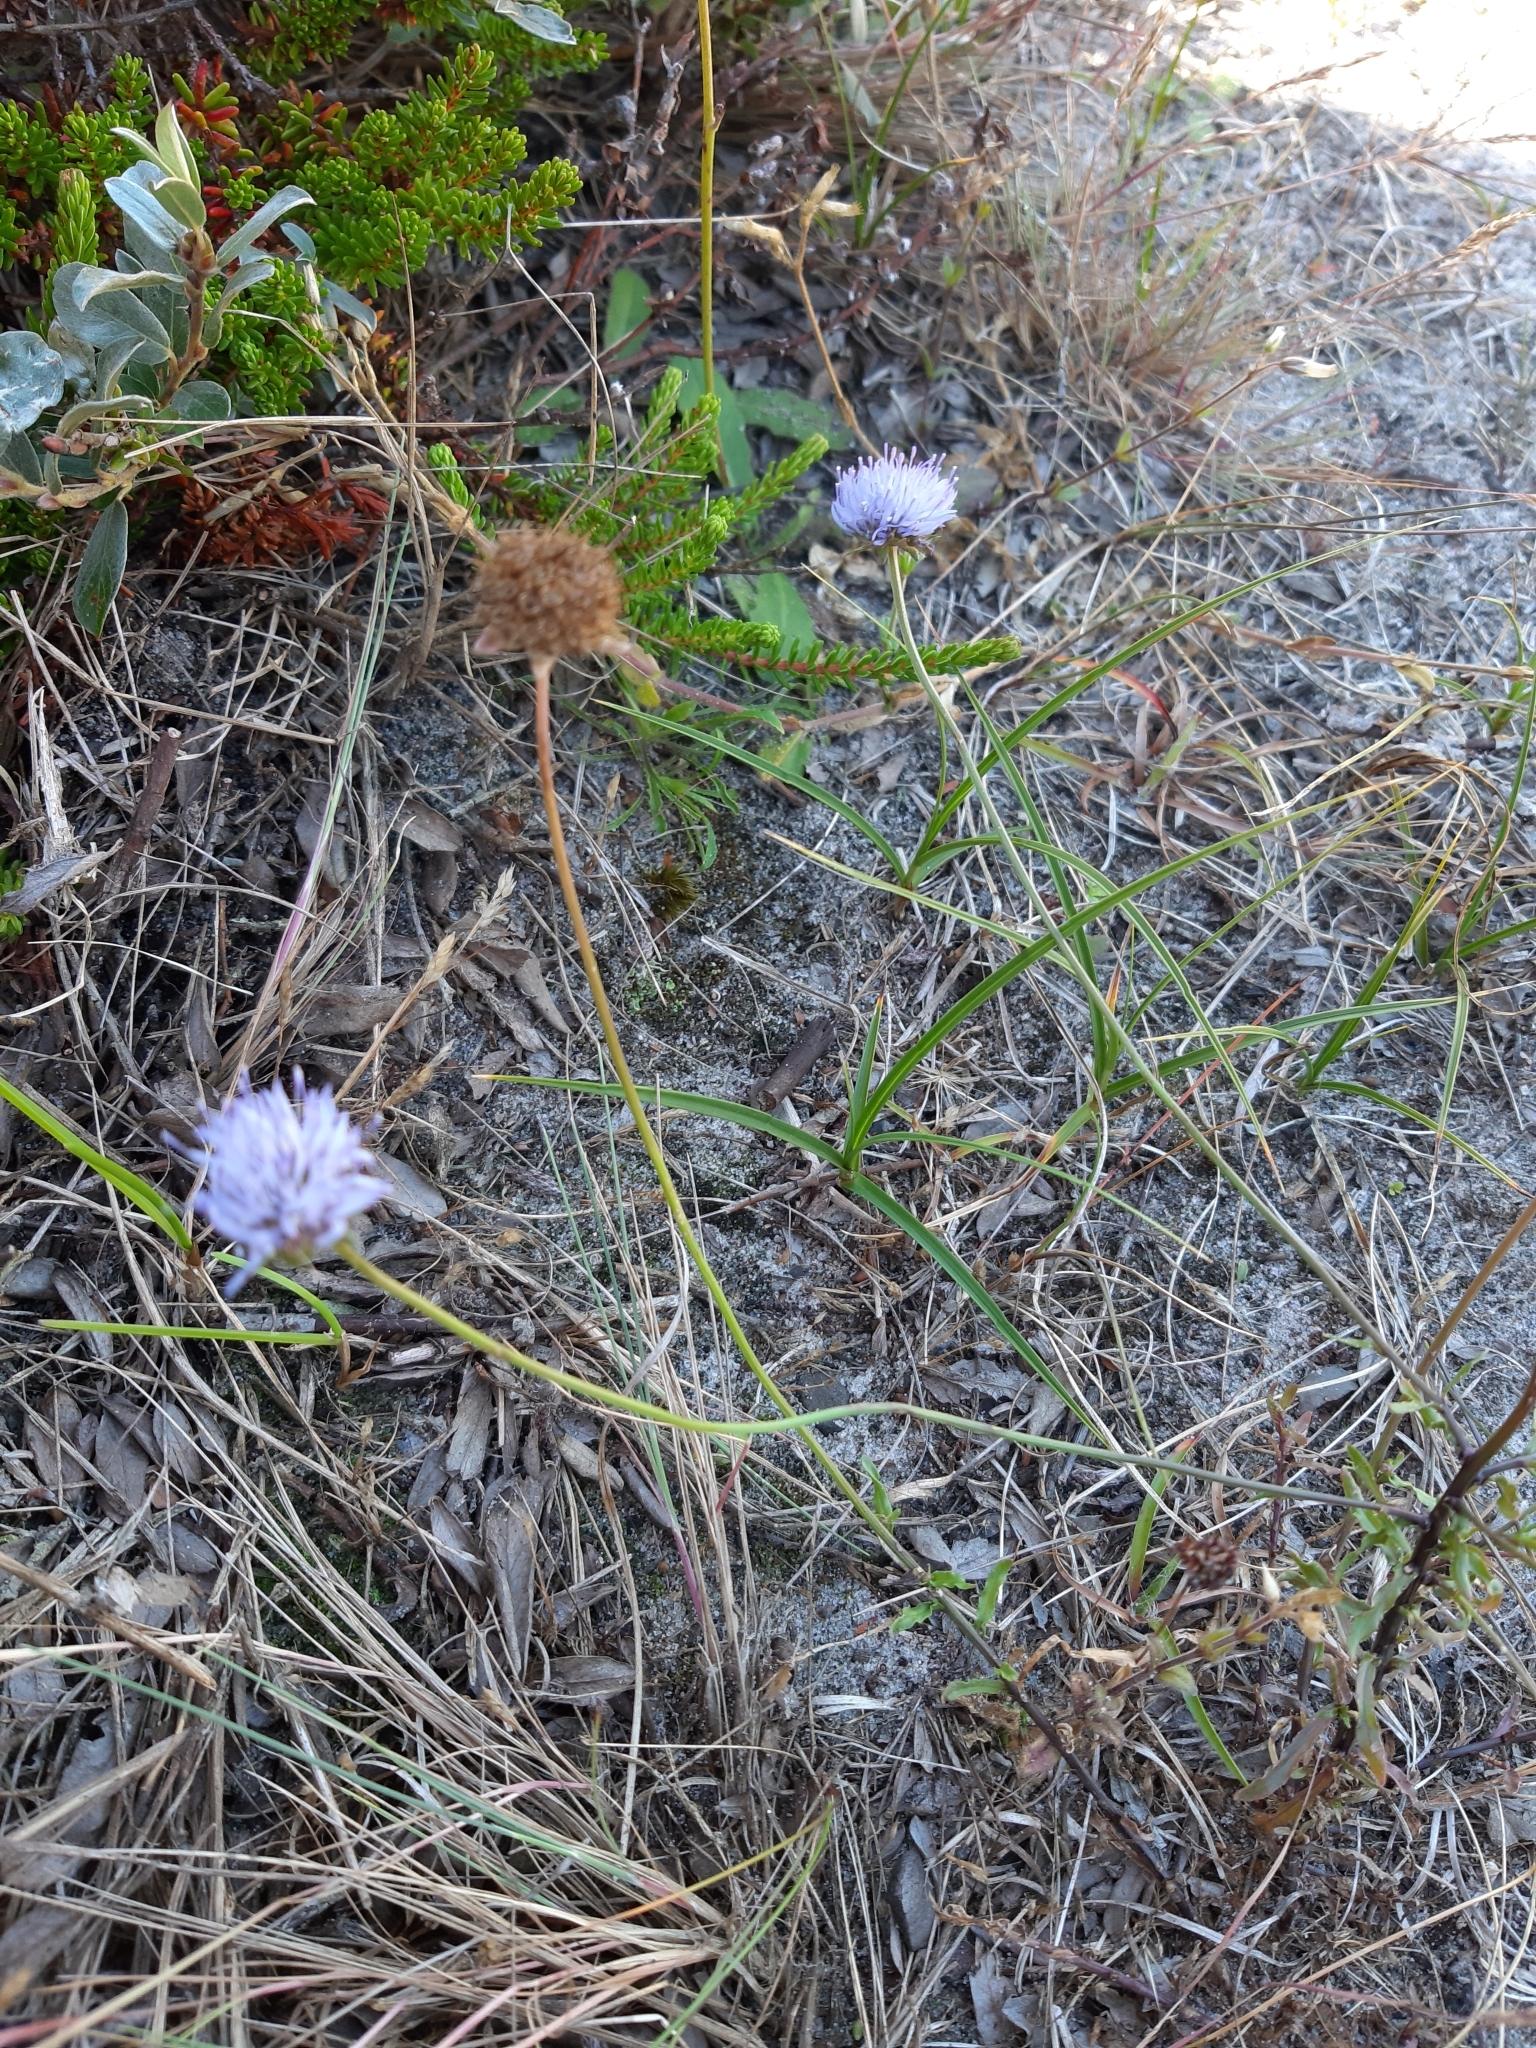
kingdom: Plantae
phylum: Tracheophyta
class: Magnoliopsida
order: Asterales
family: Campanulaceae
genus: Jasione
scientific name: Jasione montana
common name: Sheep's-bit
